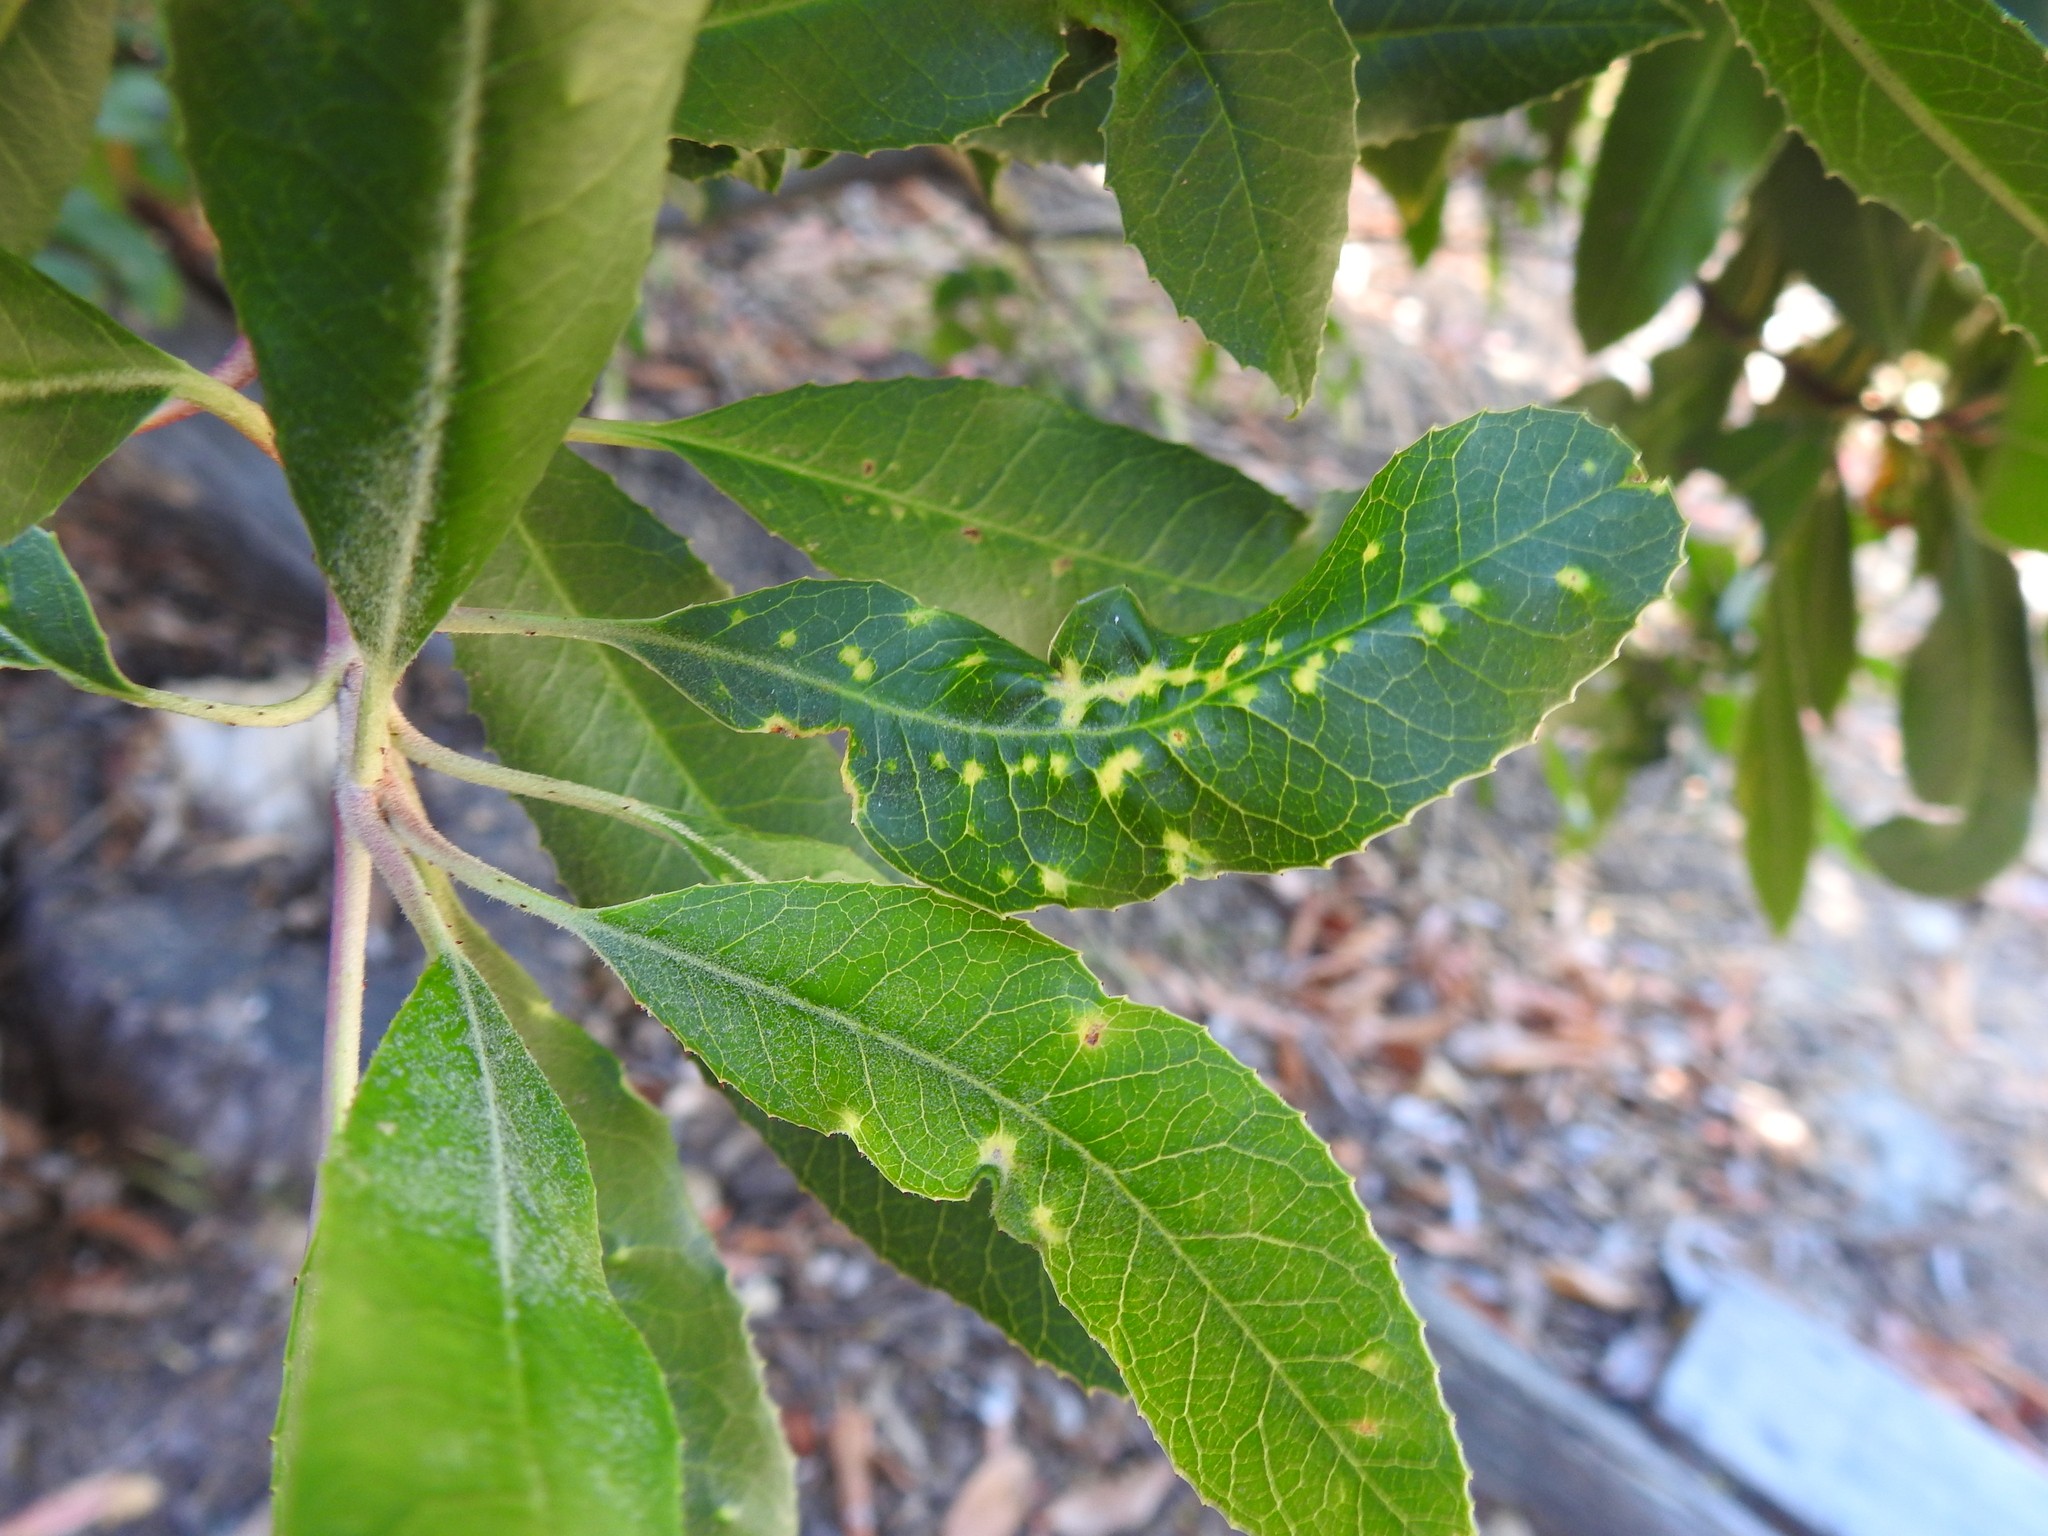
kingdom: Animalia
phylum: Arthropoda
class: Insecta
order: Thysanoptera
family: Phlaeothripidae
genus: Liothrips
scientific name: Liothrips ilex
